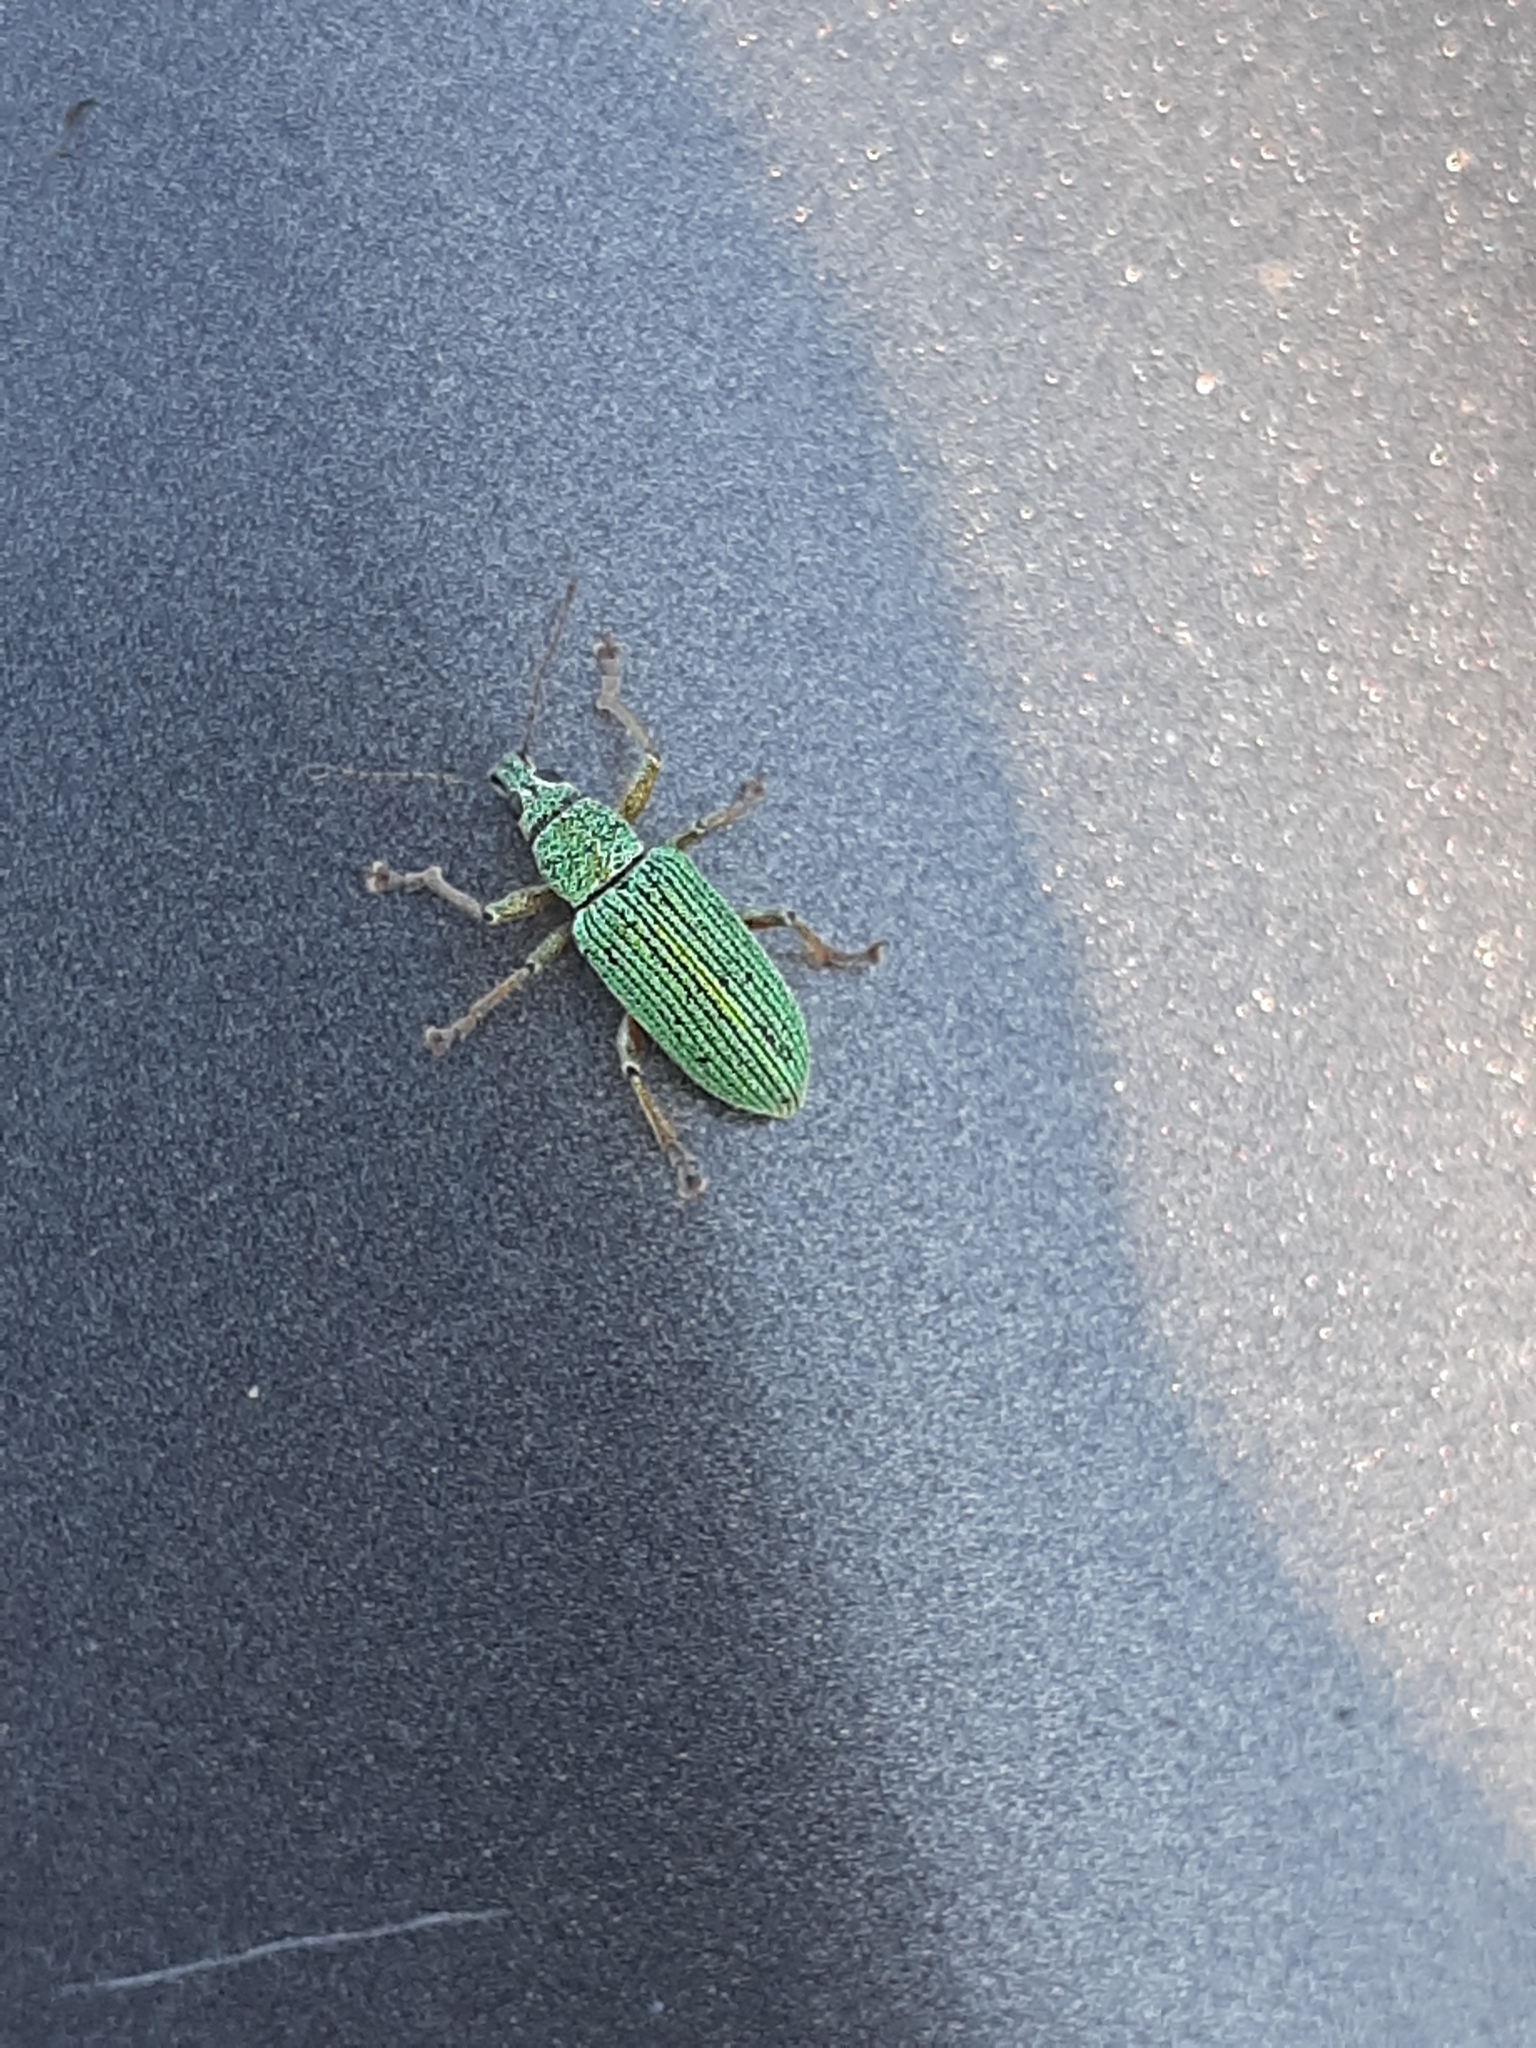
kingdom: Animalia
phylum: Arthropoda
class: Insecta
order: Coleoptera
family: Curculionidae
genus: Polydrusus
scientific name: Polydrusus formosus
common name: Weevil
